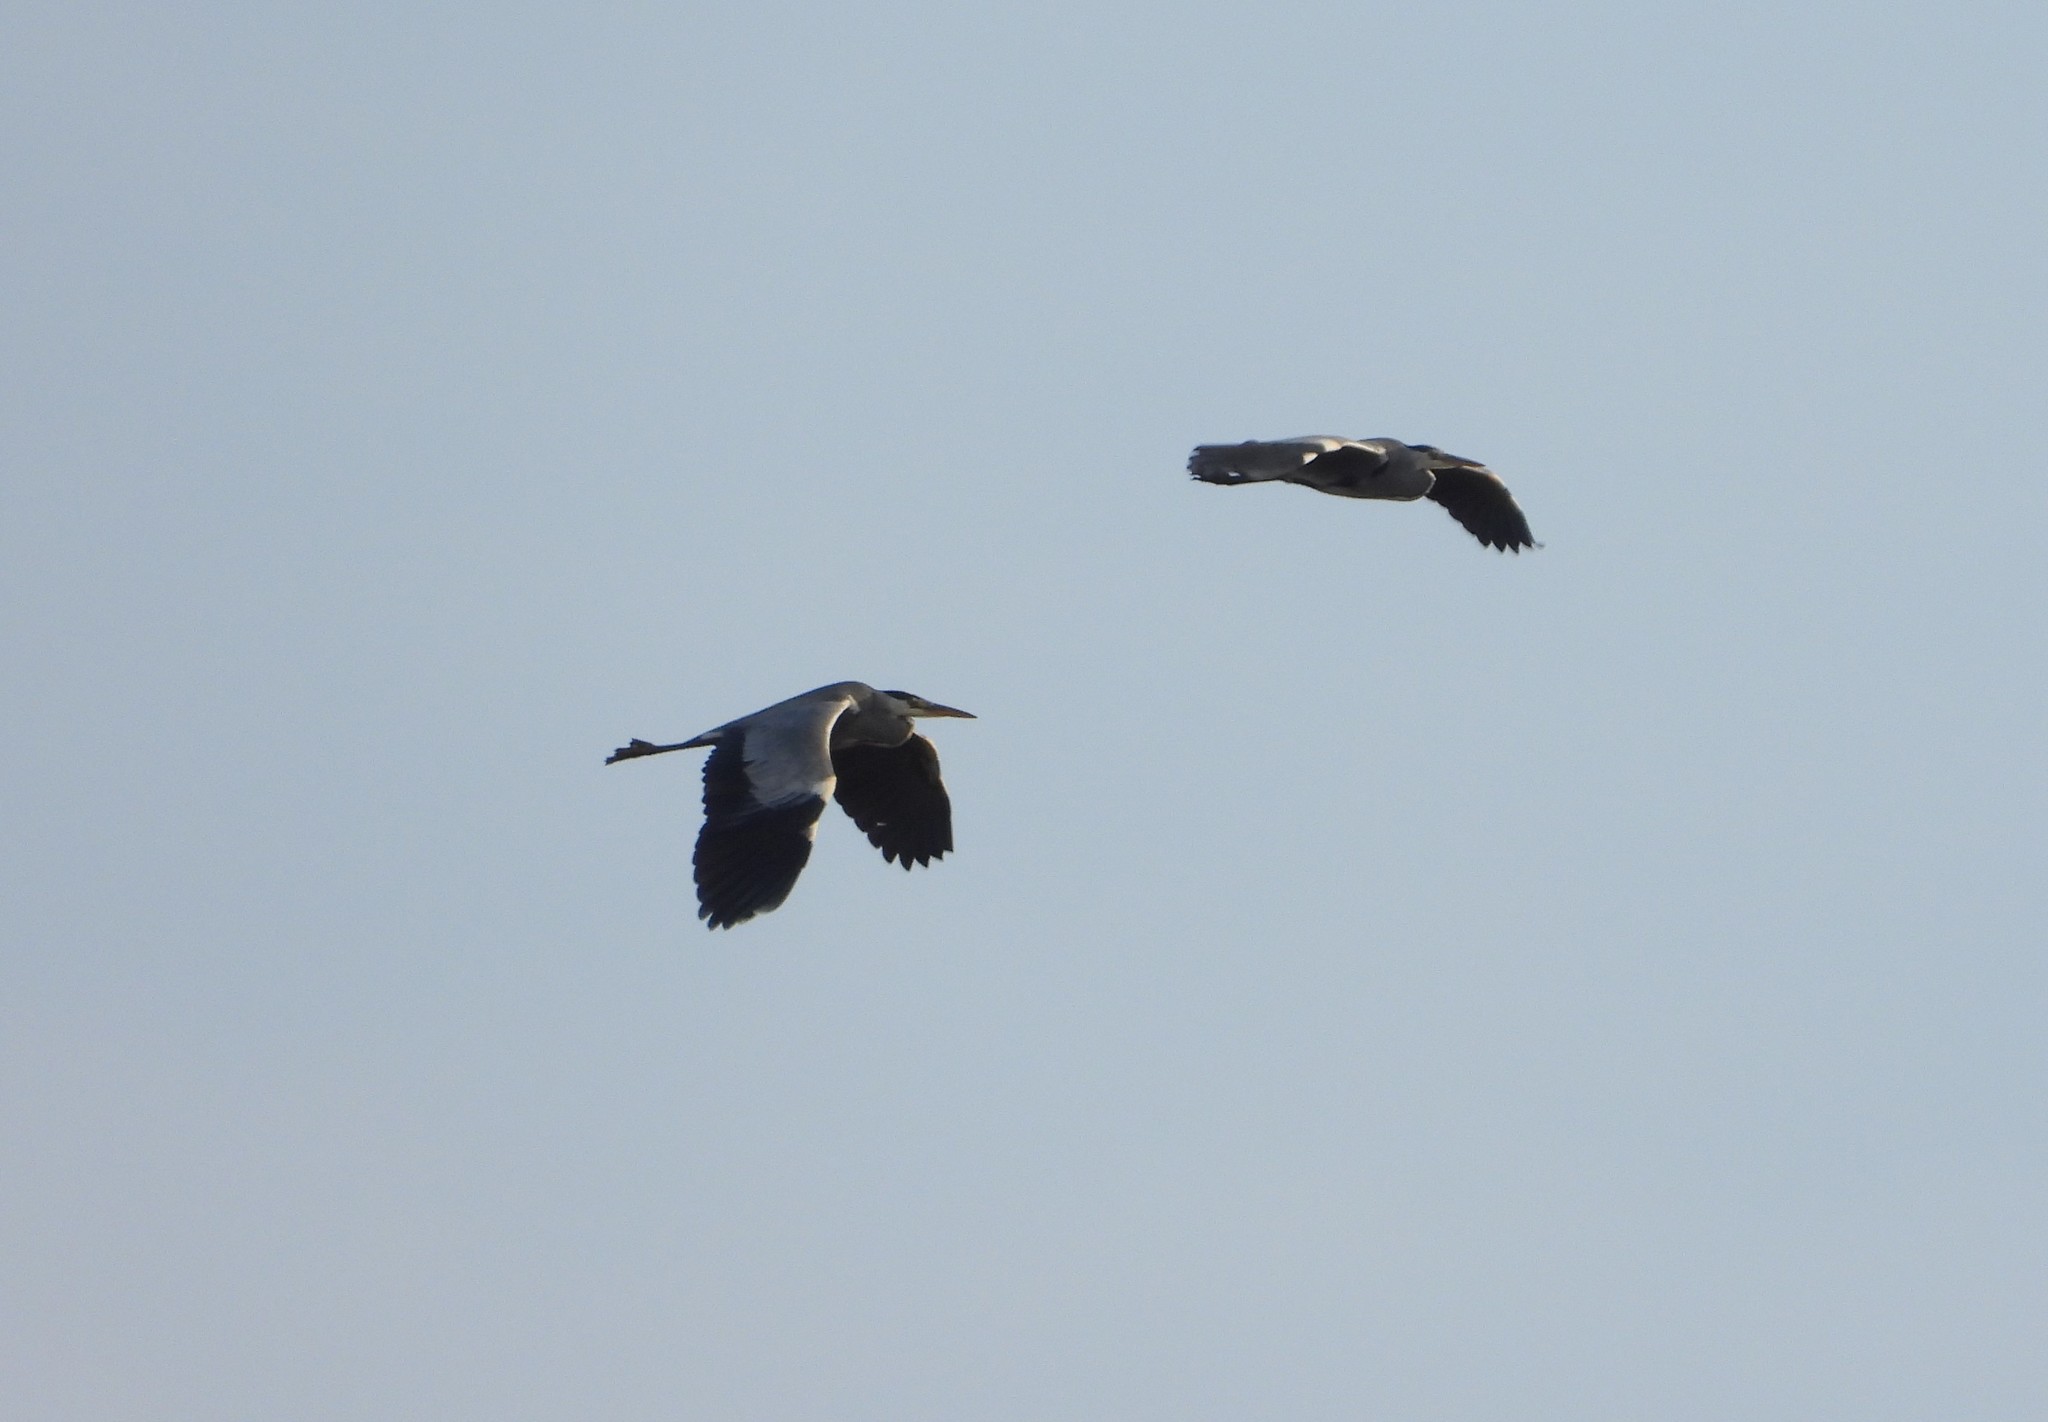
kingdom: Animalia
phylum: Chordata
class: Aves
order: Pelecaniformes
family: Ardeidae
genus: Ardea
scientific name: Ardea cinerea
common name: Grey heron
